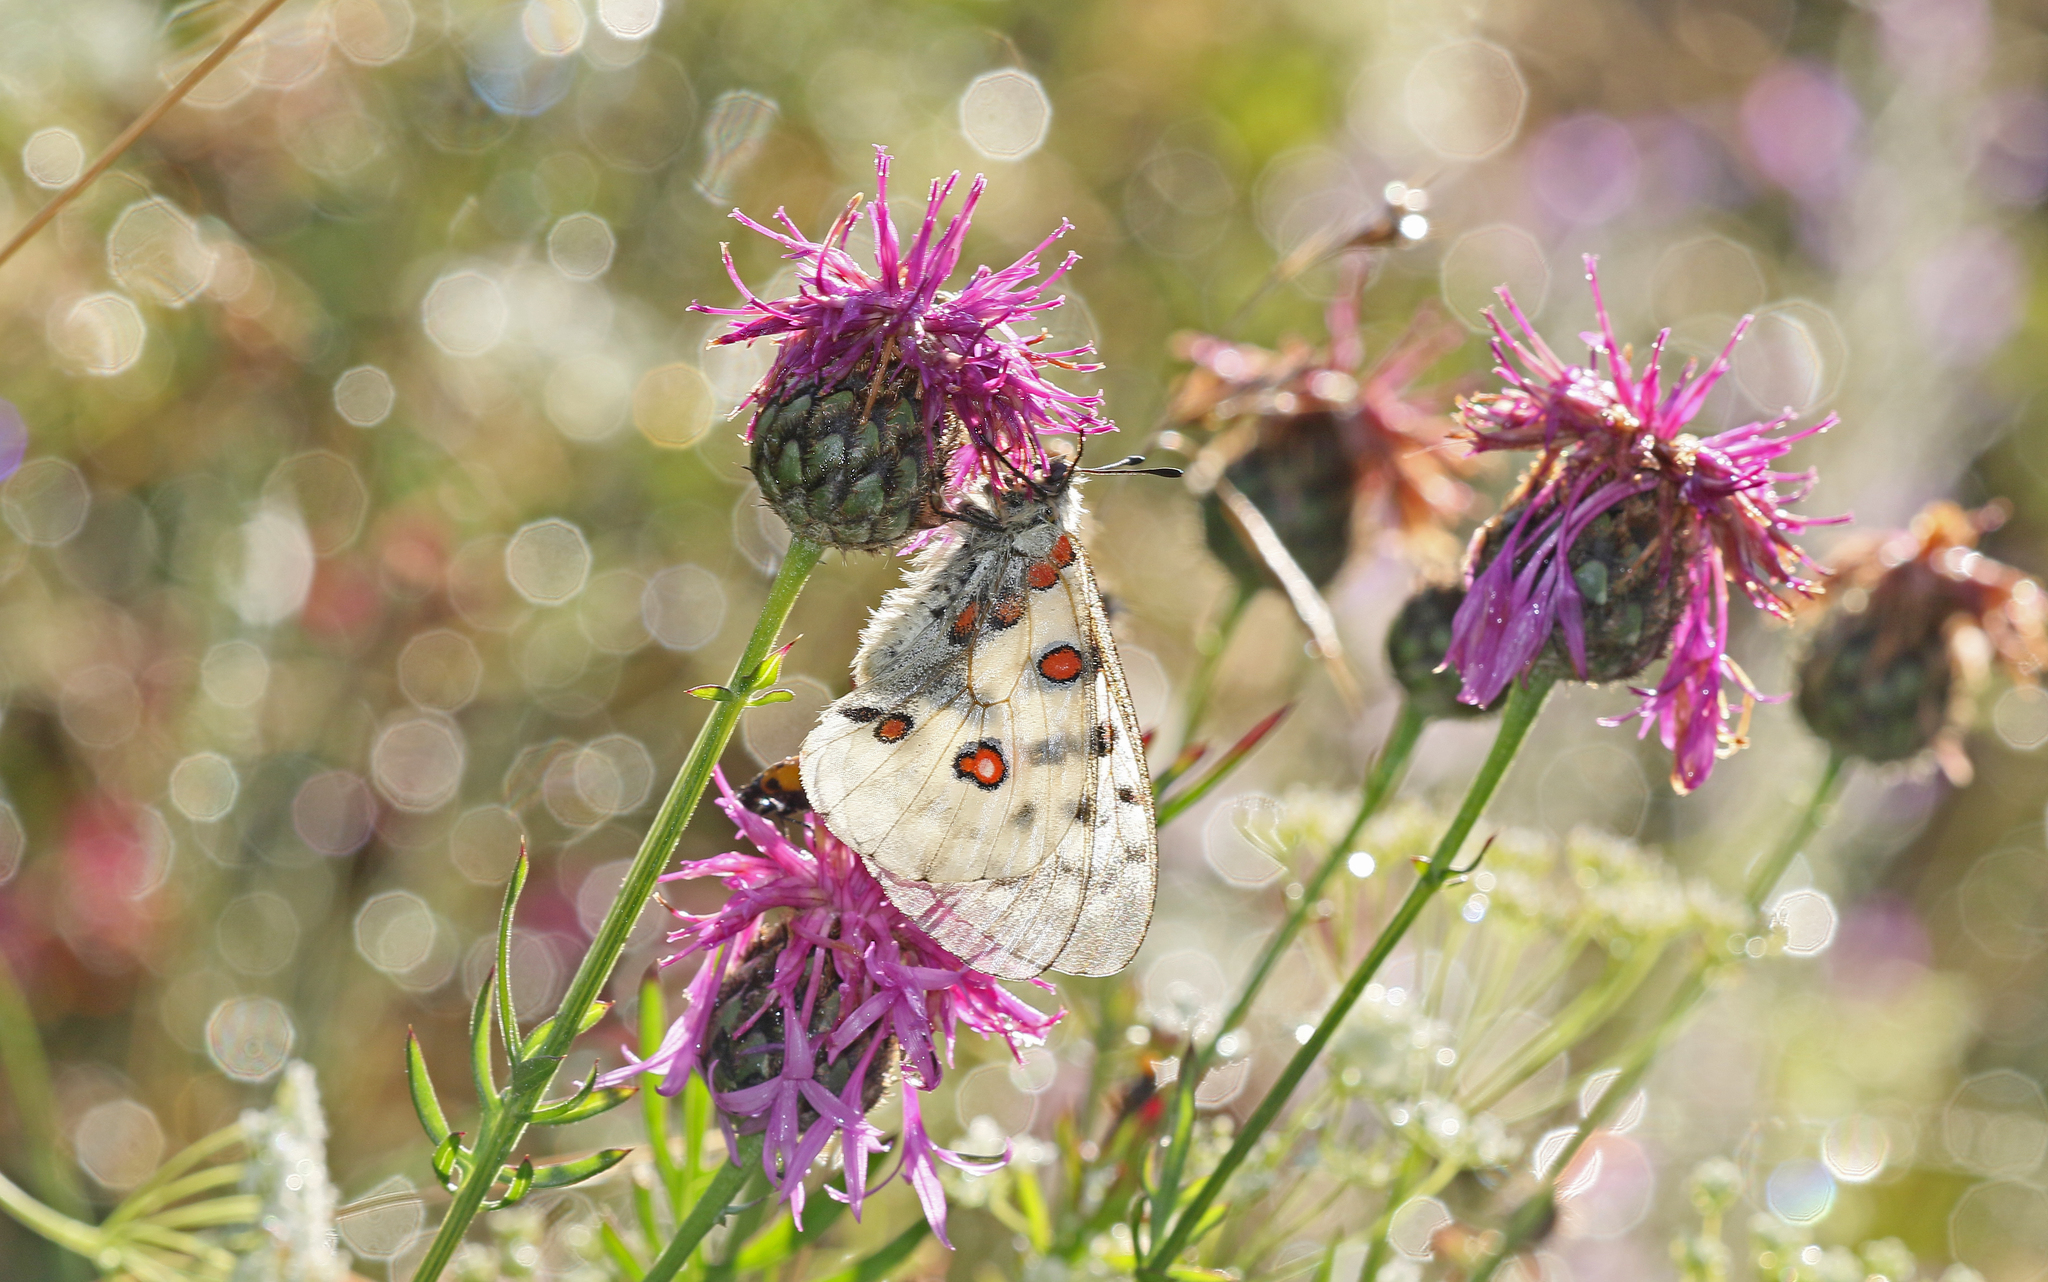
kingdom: Animalia
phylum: Arthropoda
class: Insecta
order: Lepidoptera
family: Papilionidae
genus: Parnassius
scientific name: Parnassius apollo
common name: Apollo
